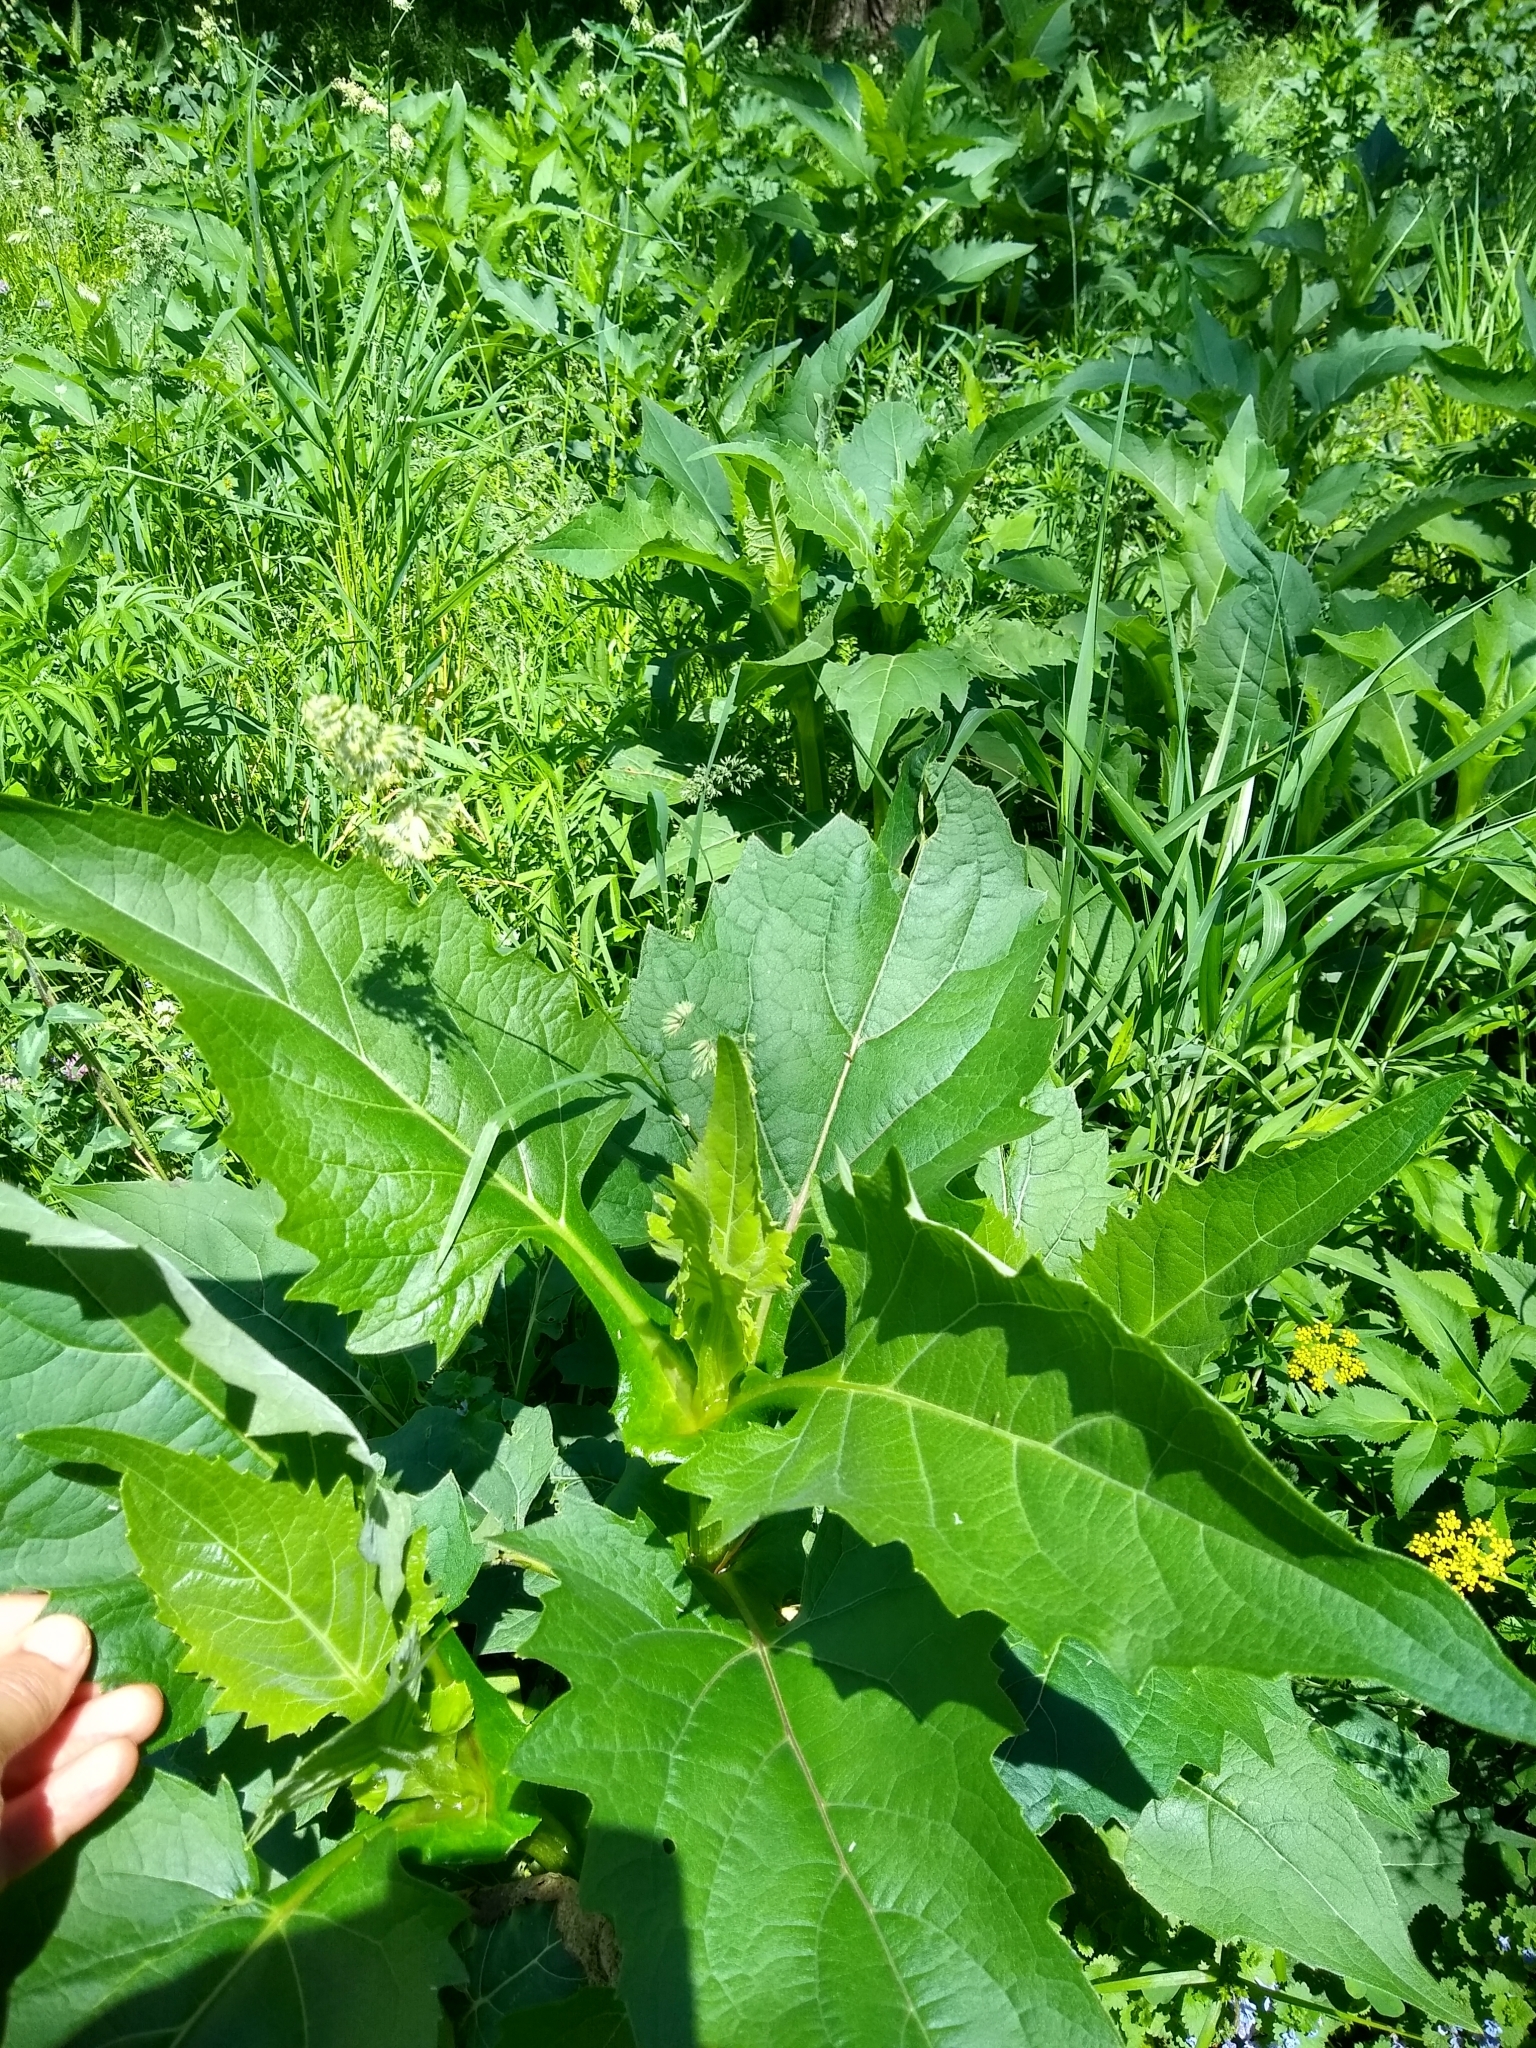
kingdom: Plantae
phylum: Tracheophyta
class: Magnoliopsida
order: Asterales
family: Asteraceae
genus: Silphium
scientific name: Silphium perfoliatum
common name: Cup-plant
